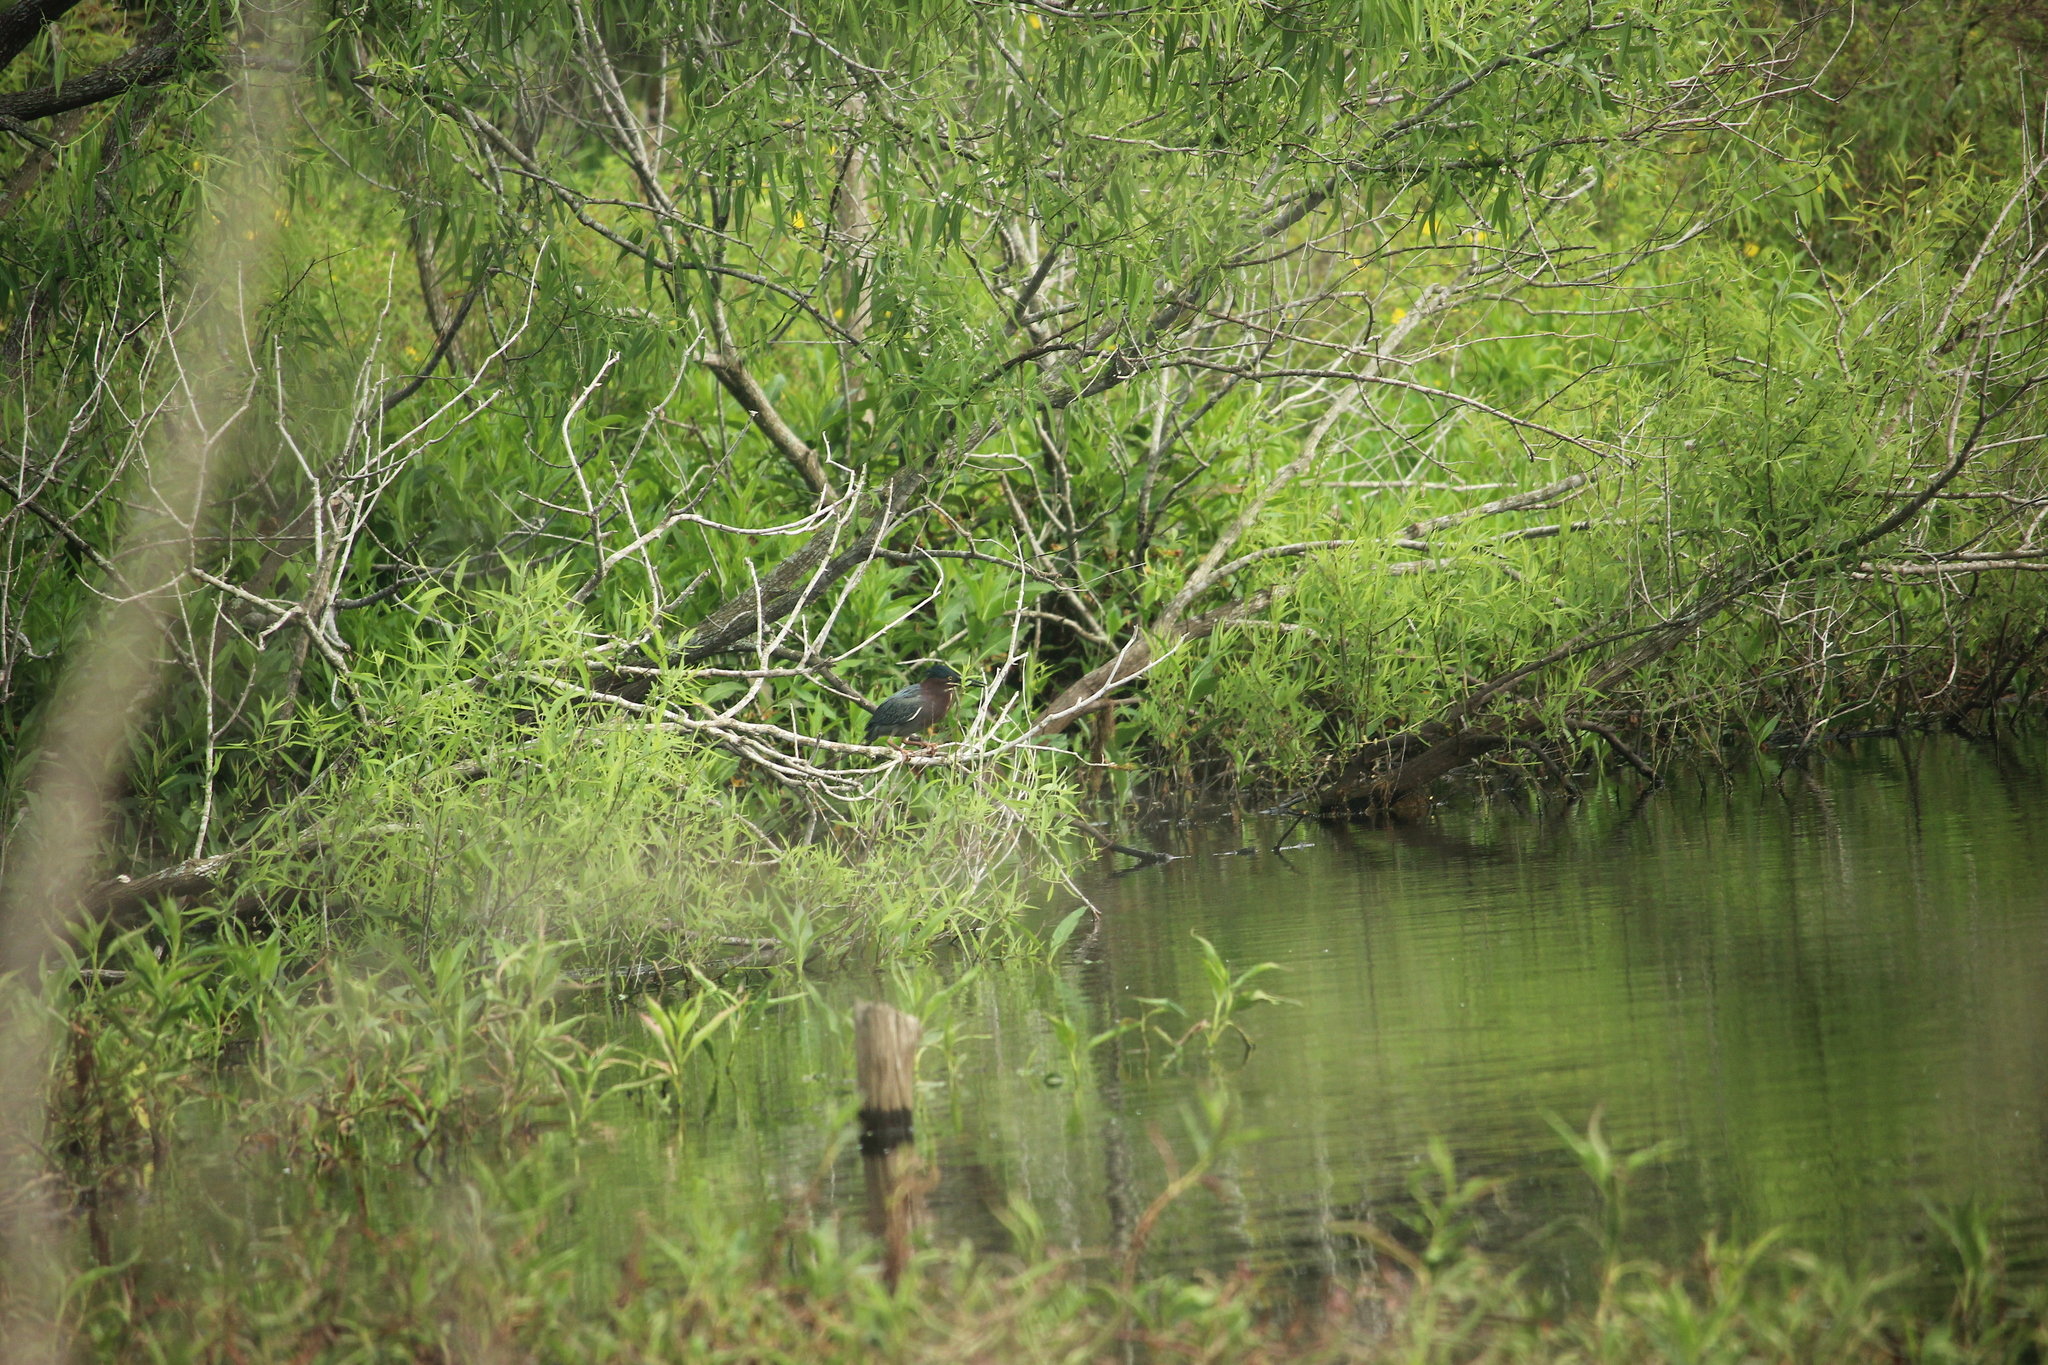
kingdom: Animalia
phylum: Chordata
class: Aves
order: Pelecaniformes
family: Ardeidae
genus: Butorides
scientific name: Butorides virescens
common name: Green heron
